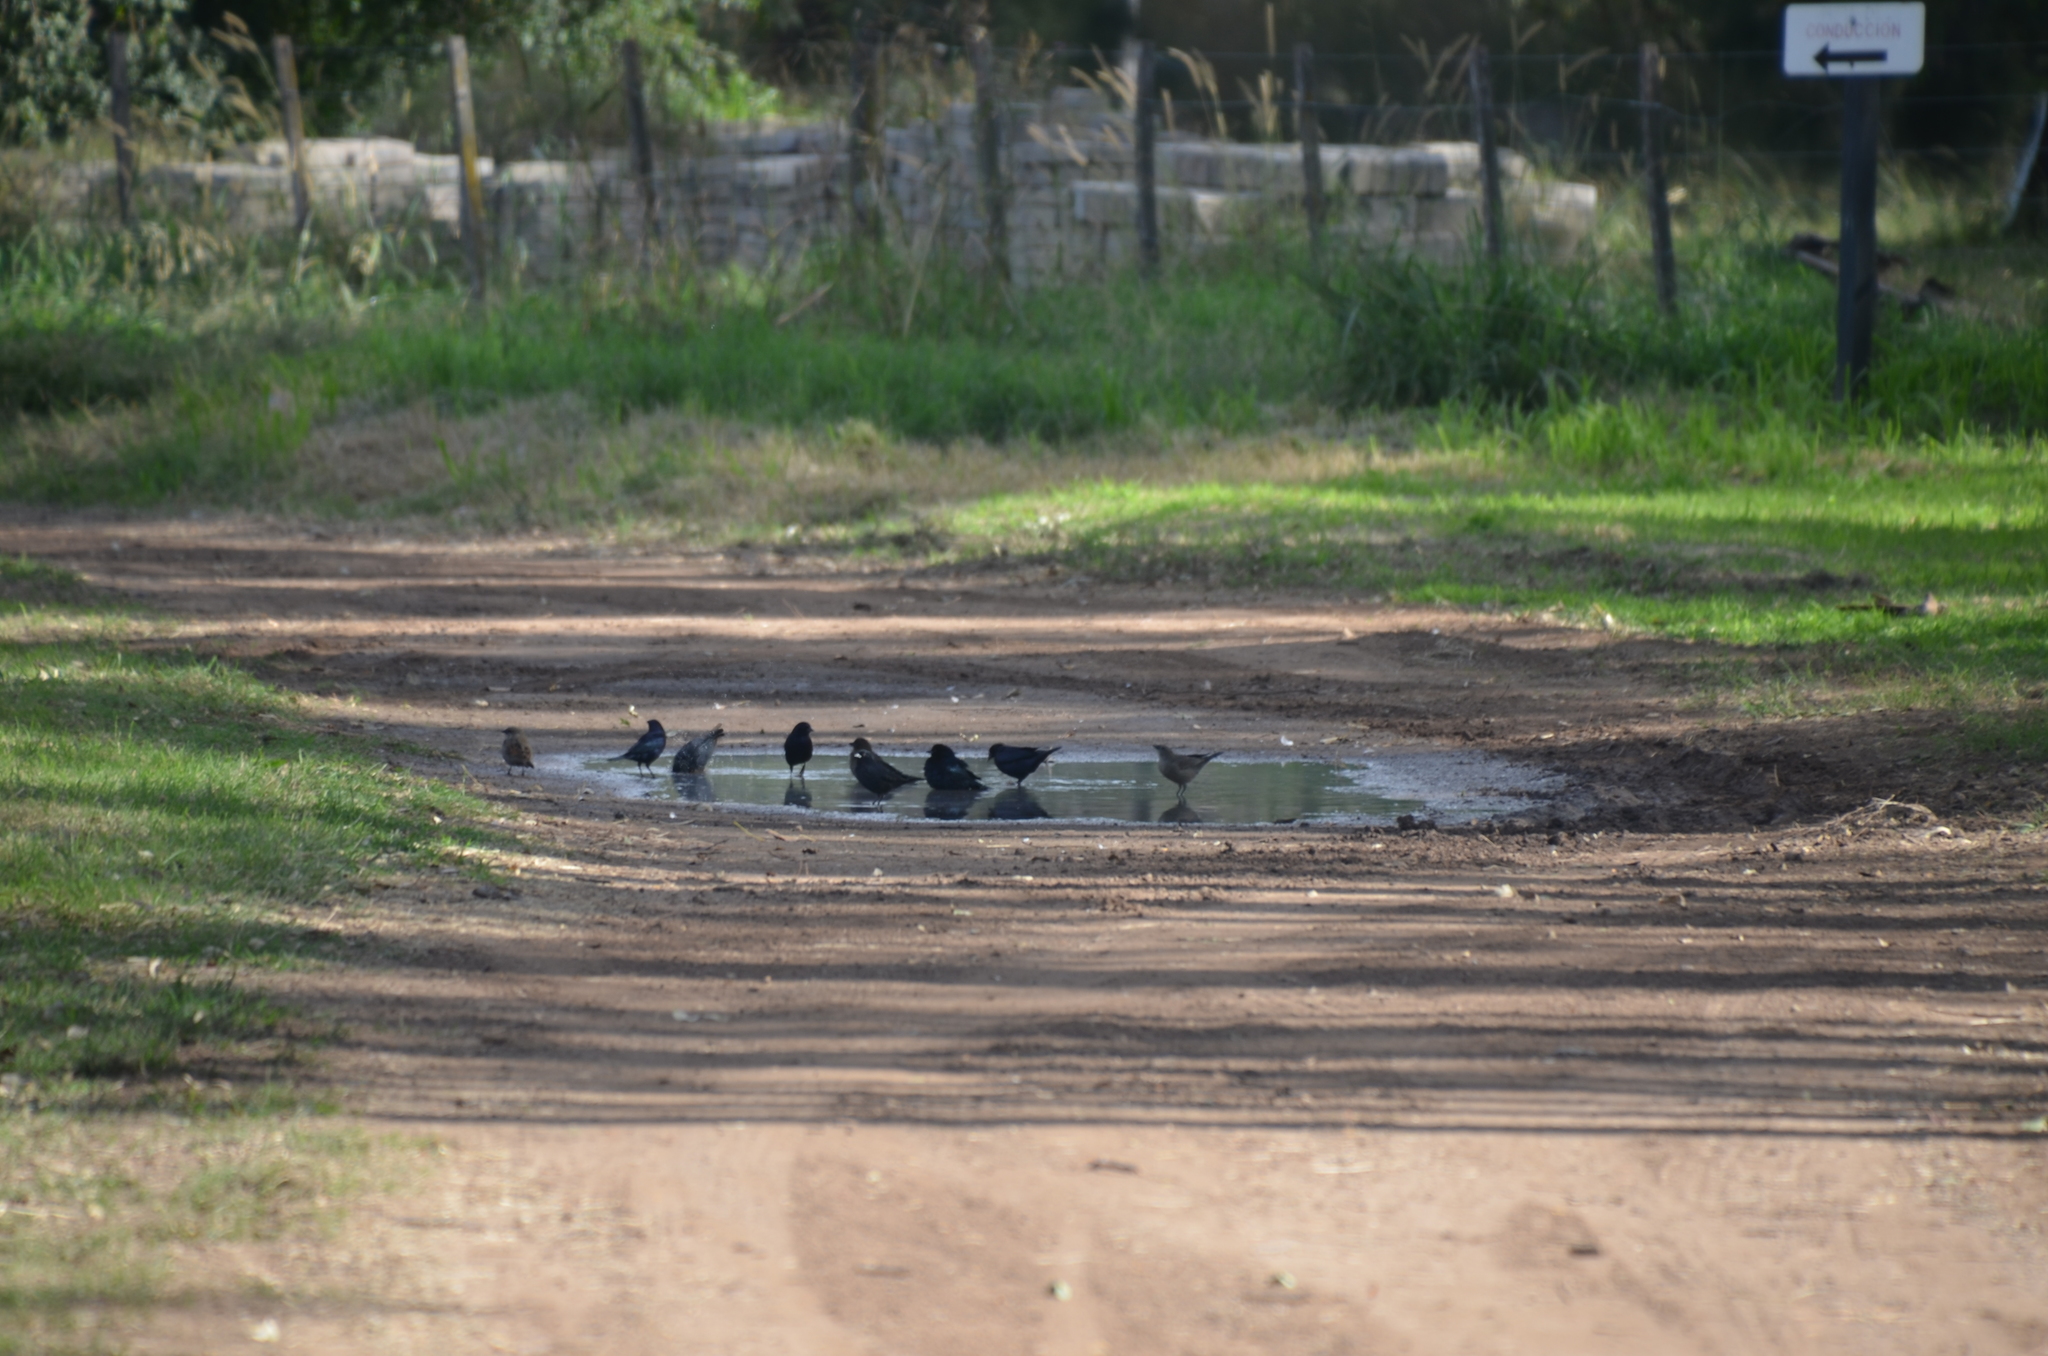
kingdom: Animalia
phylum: Chordata
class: Aves
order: Passeriformes
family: Icteridae
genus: Molothrus
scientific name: Molothrus bonariensis
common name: Shiny cowbird
